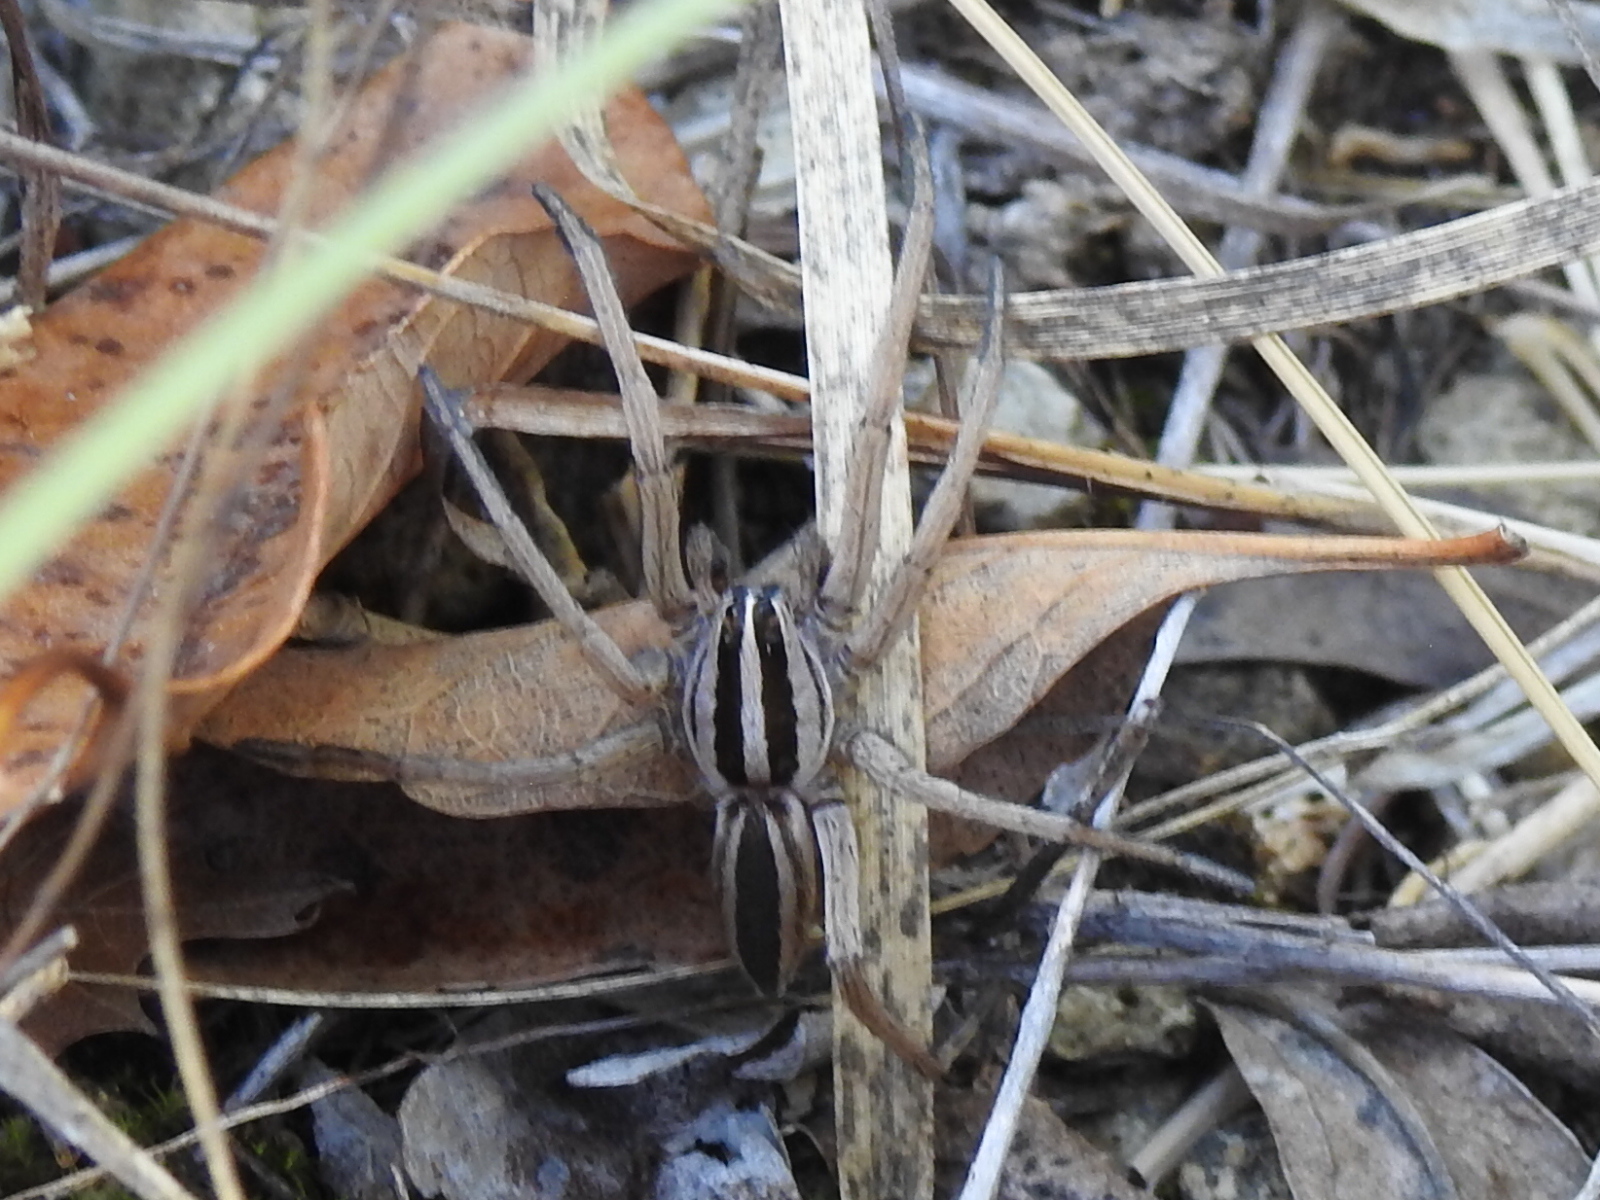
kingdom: Animalia
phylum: Arthropoda
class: Arachnida
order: Araneae
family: Lycosidae
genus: Rabidosa
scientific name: Rabidosa rabida
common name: Rabid wolf spider
